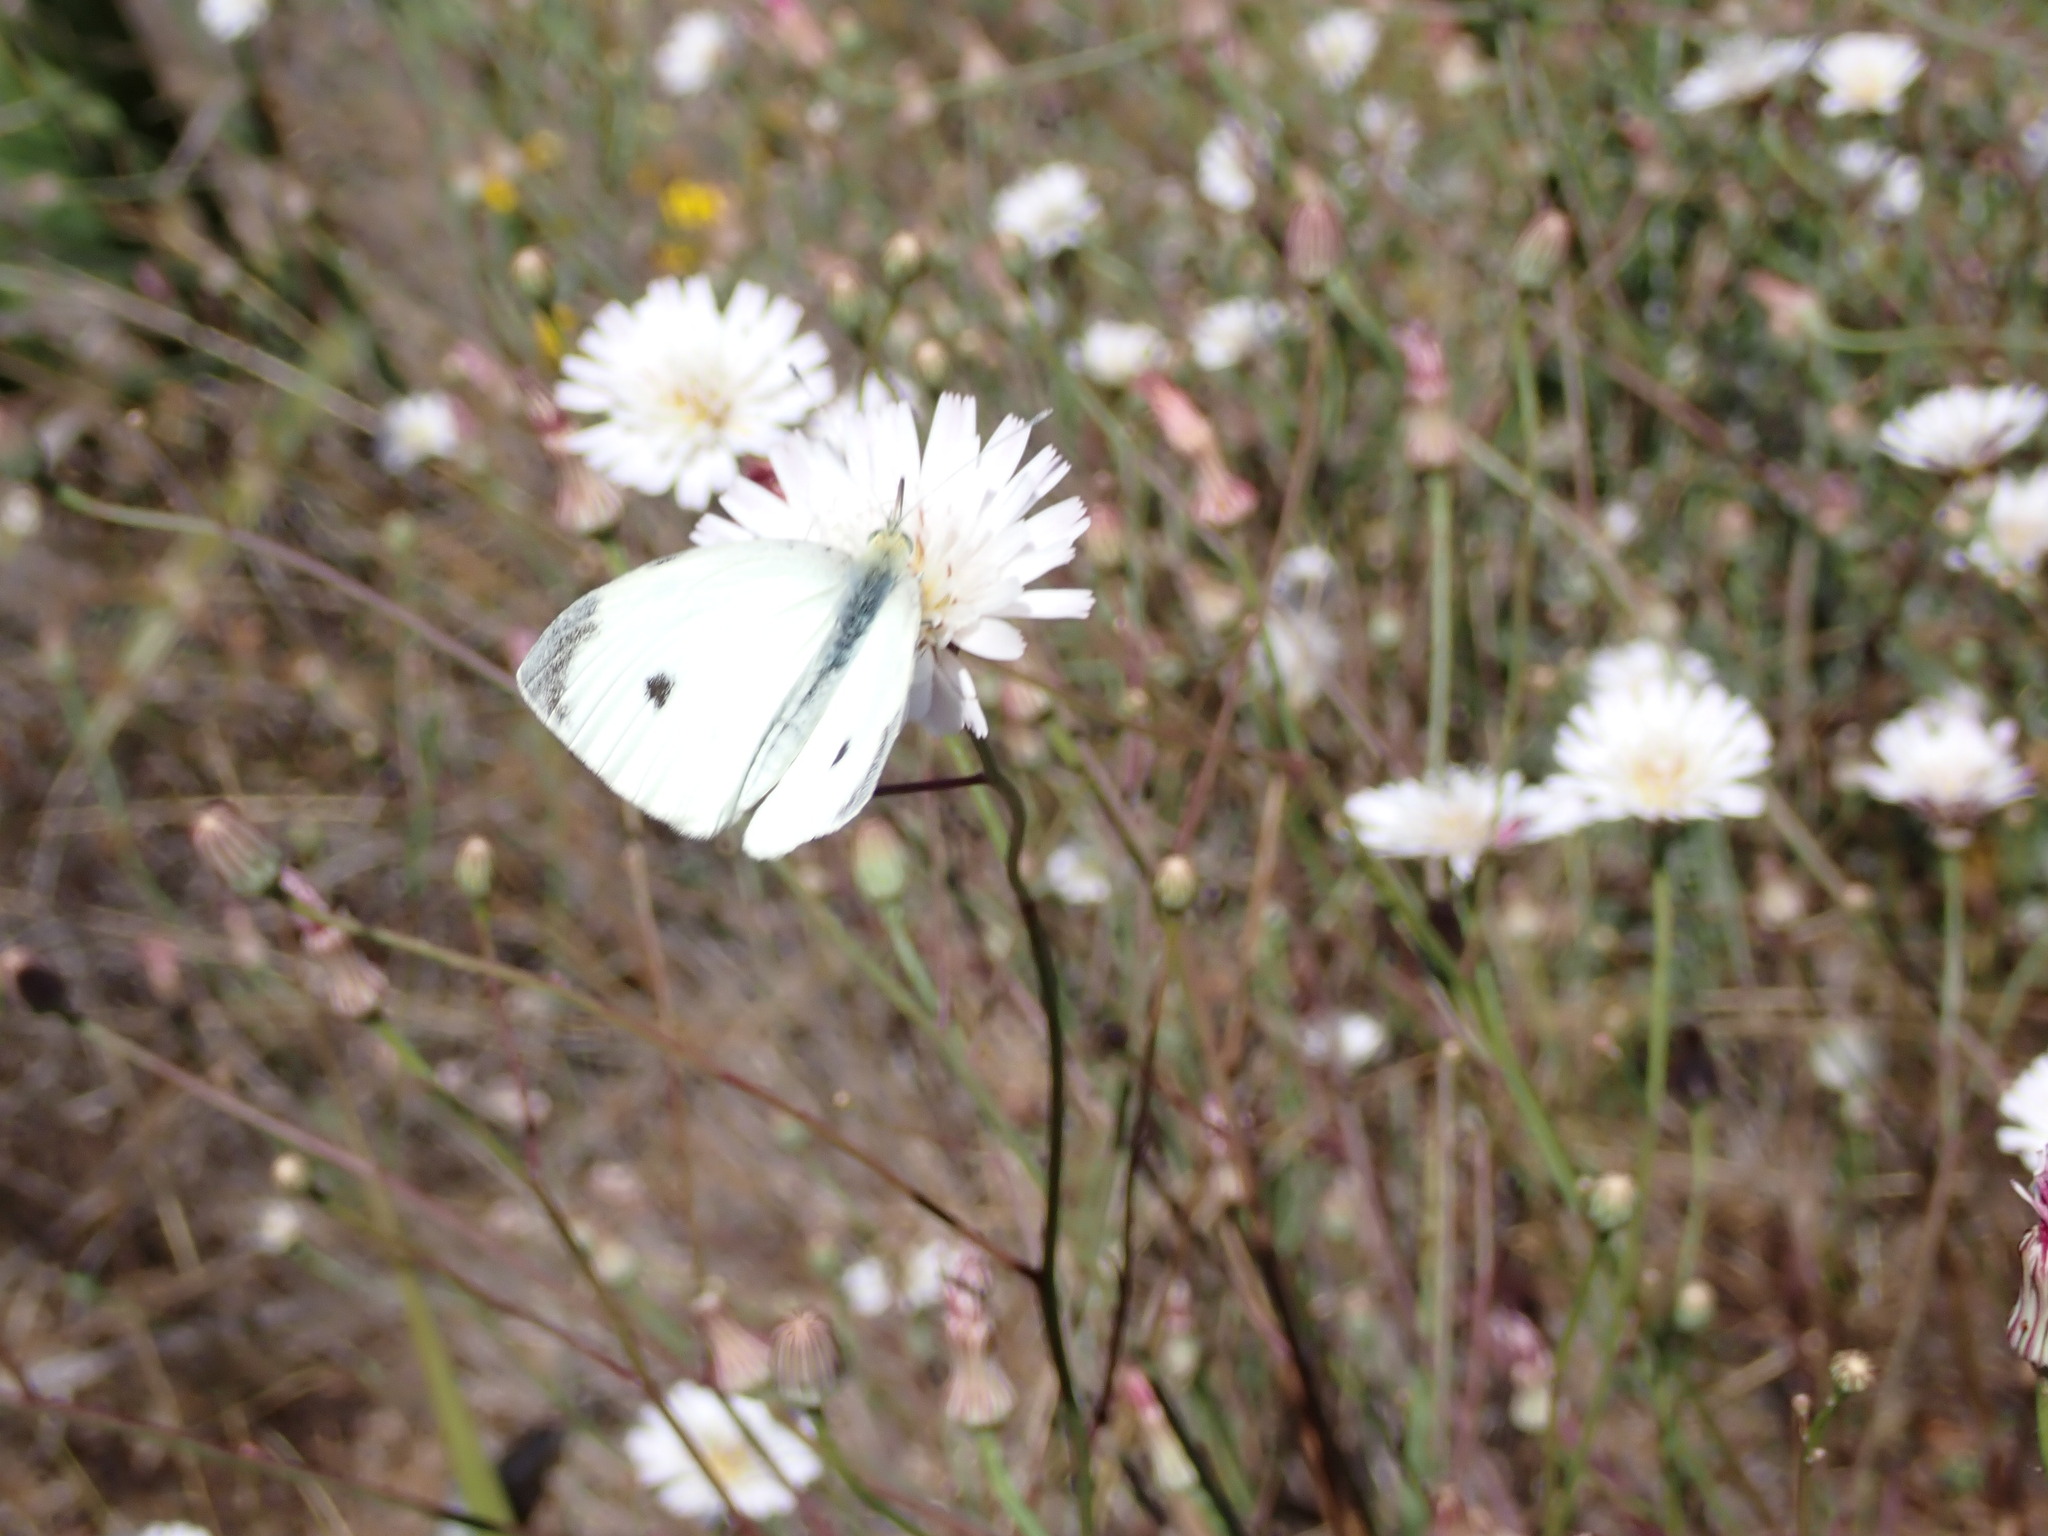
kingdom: Animalia
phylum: Arthropoda
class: Insecta
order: Lepidoptera
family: Pieridae
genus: Pieris
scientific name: Pieris rapae
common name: Small white
